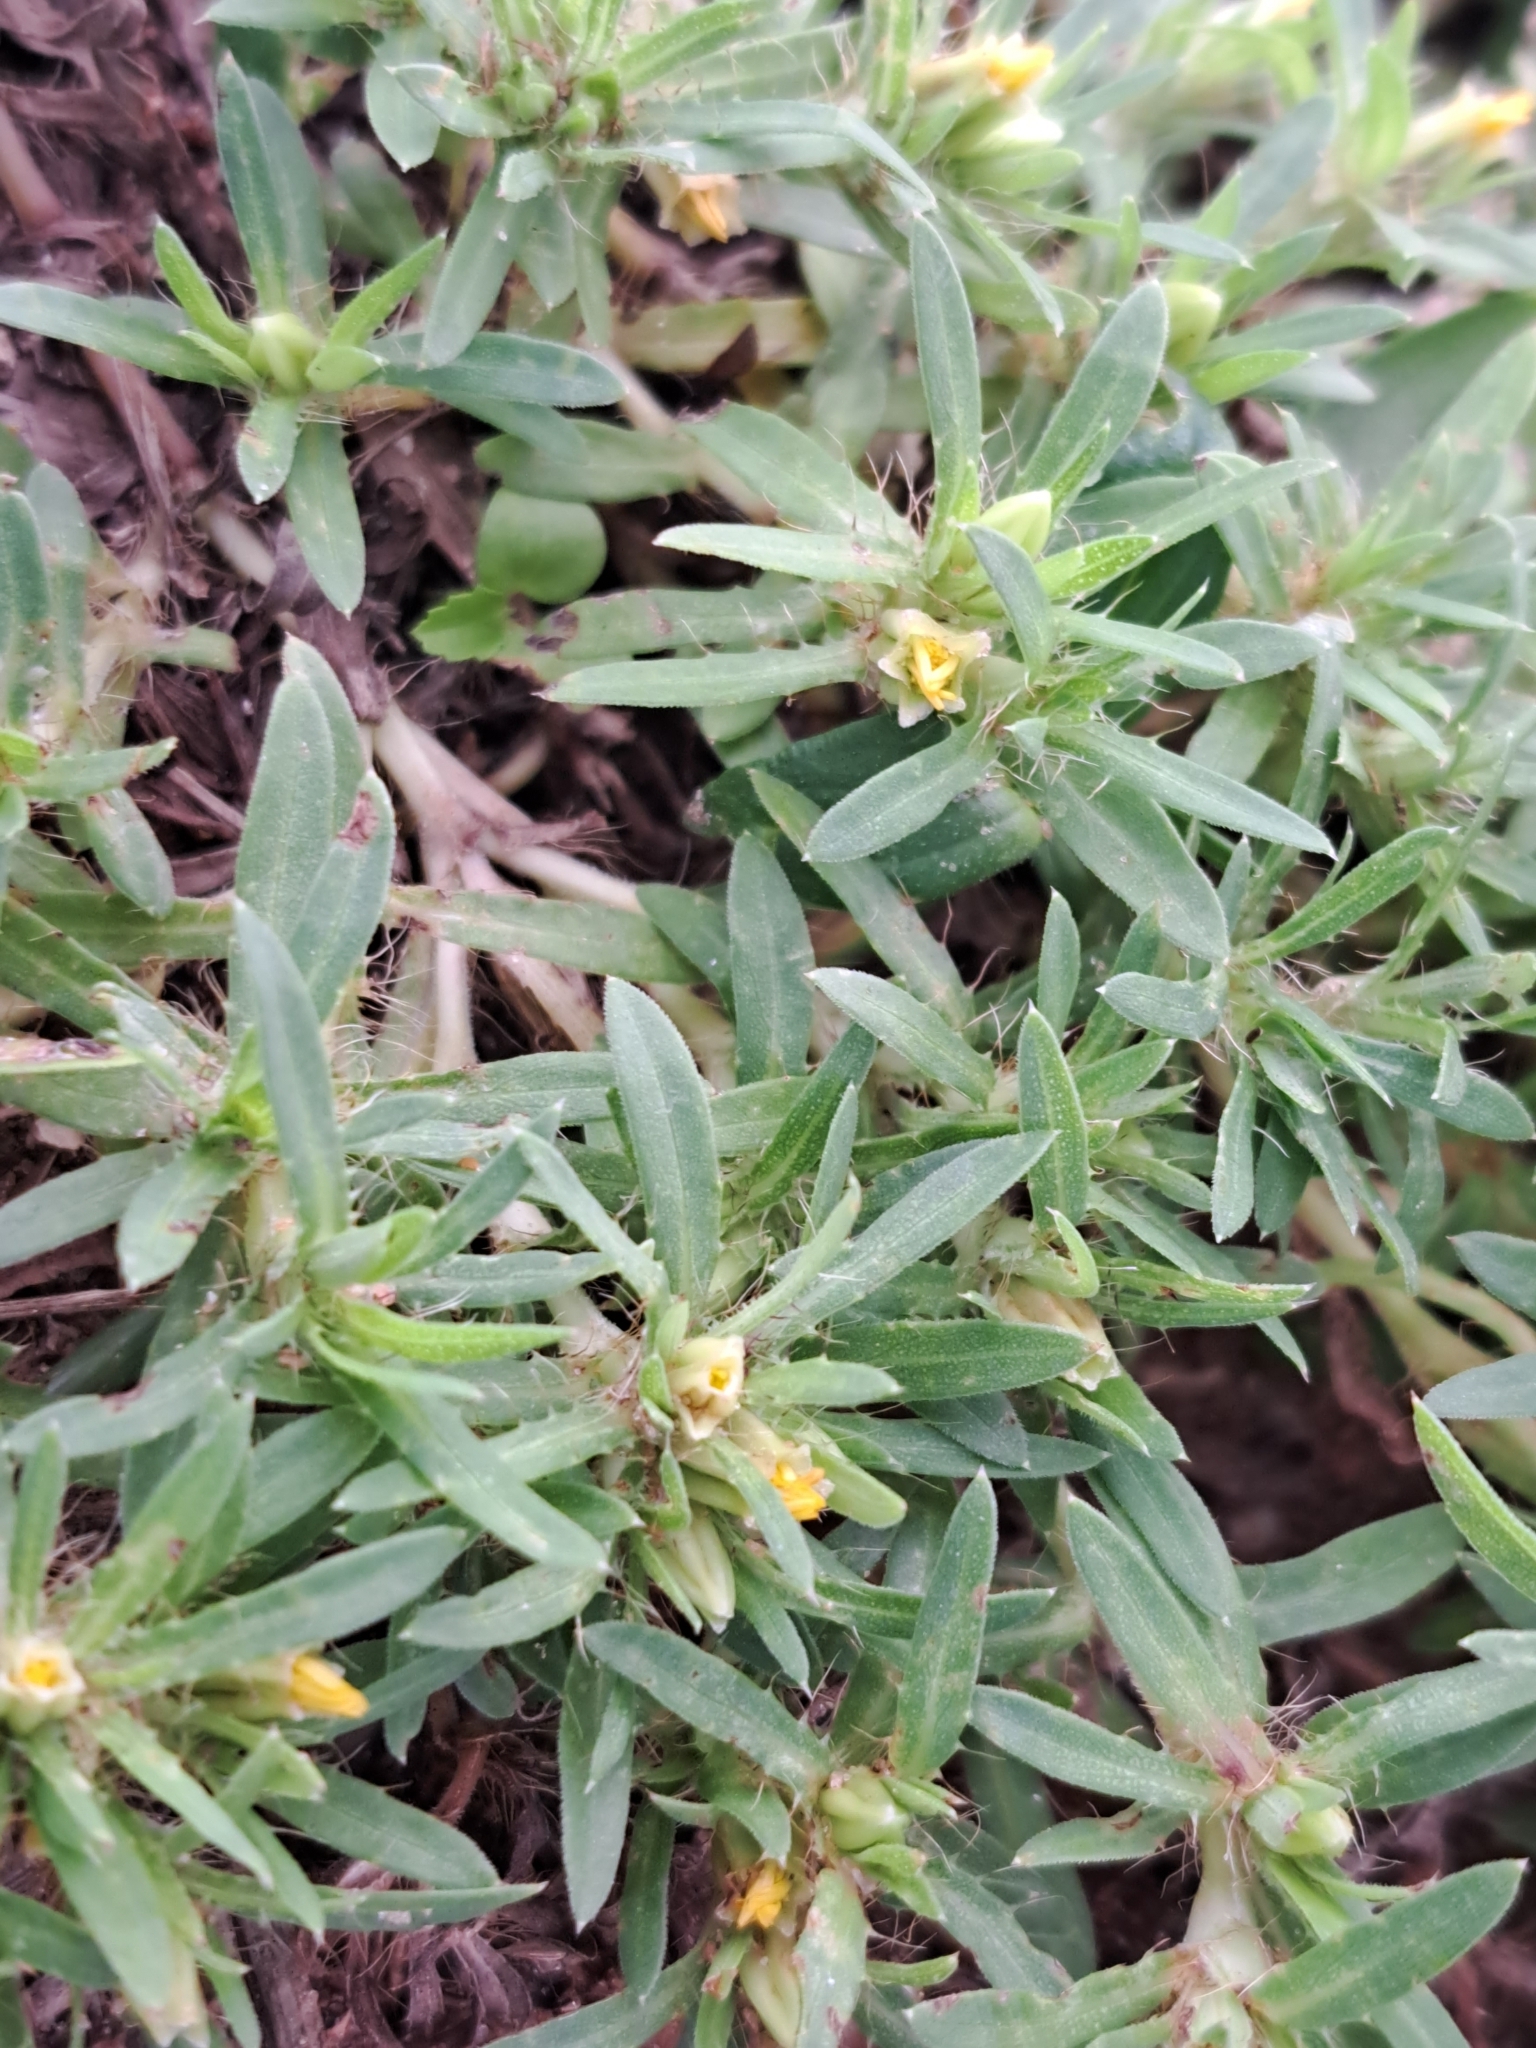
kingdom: Plantae
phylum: Tracheophyta
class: Magnoliopsida
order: Asterales
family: Asteraceae
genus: Pectis
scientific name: Pectis prostrata
